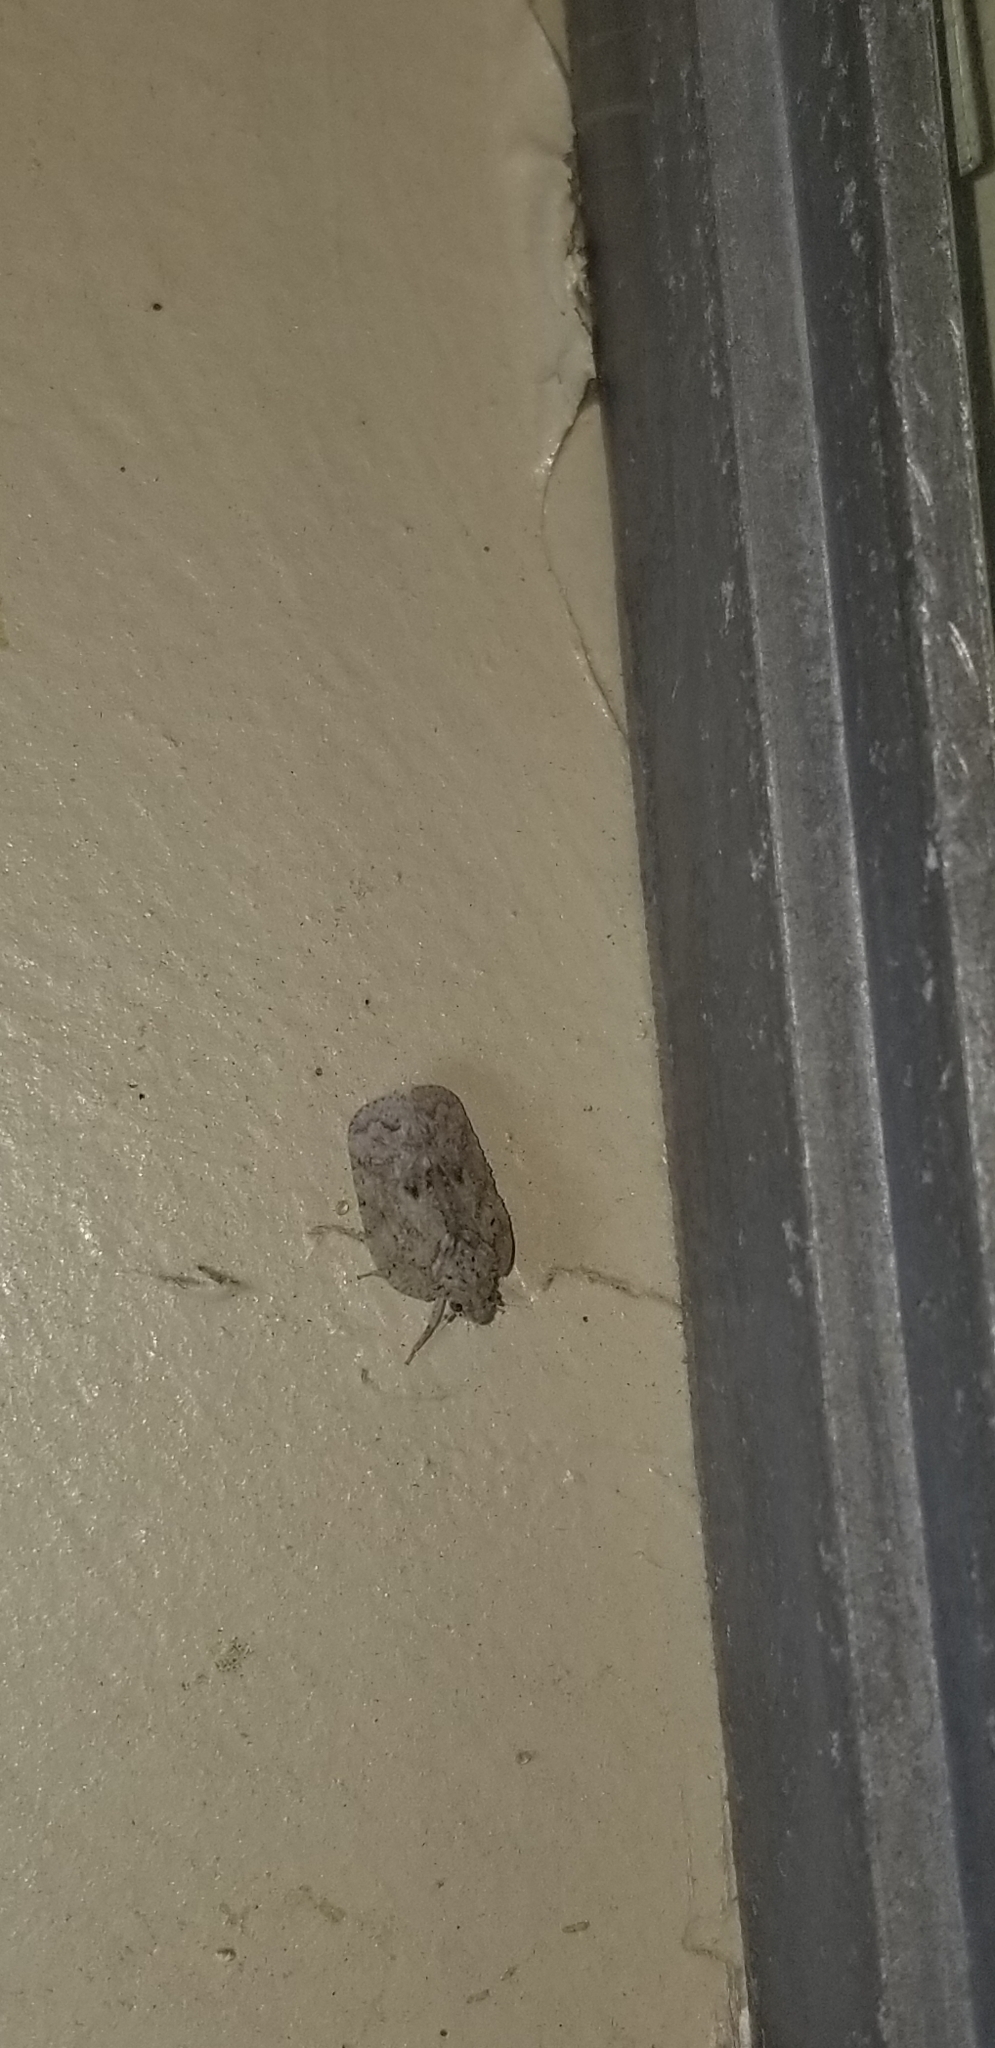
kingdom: Animalia
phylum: Arthropoda
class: Insecta
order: Hemiptera
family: Flatidae
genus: Flatoidinus
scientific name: Flatoidinus punctatus
